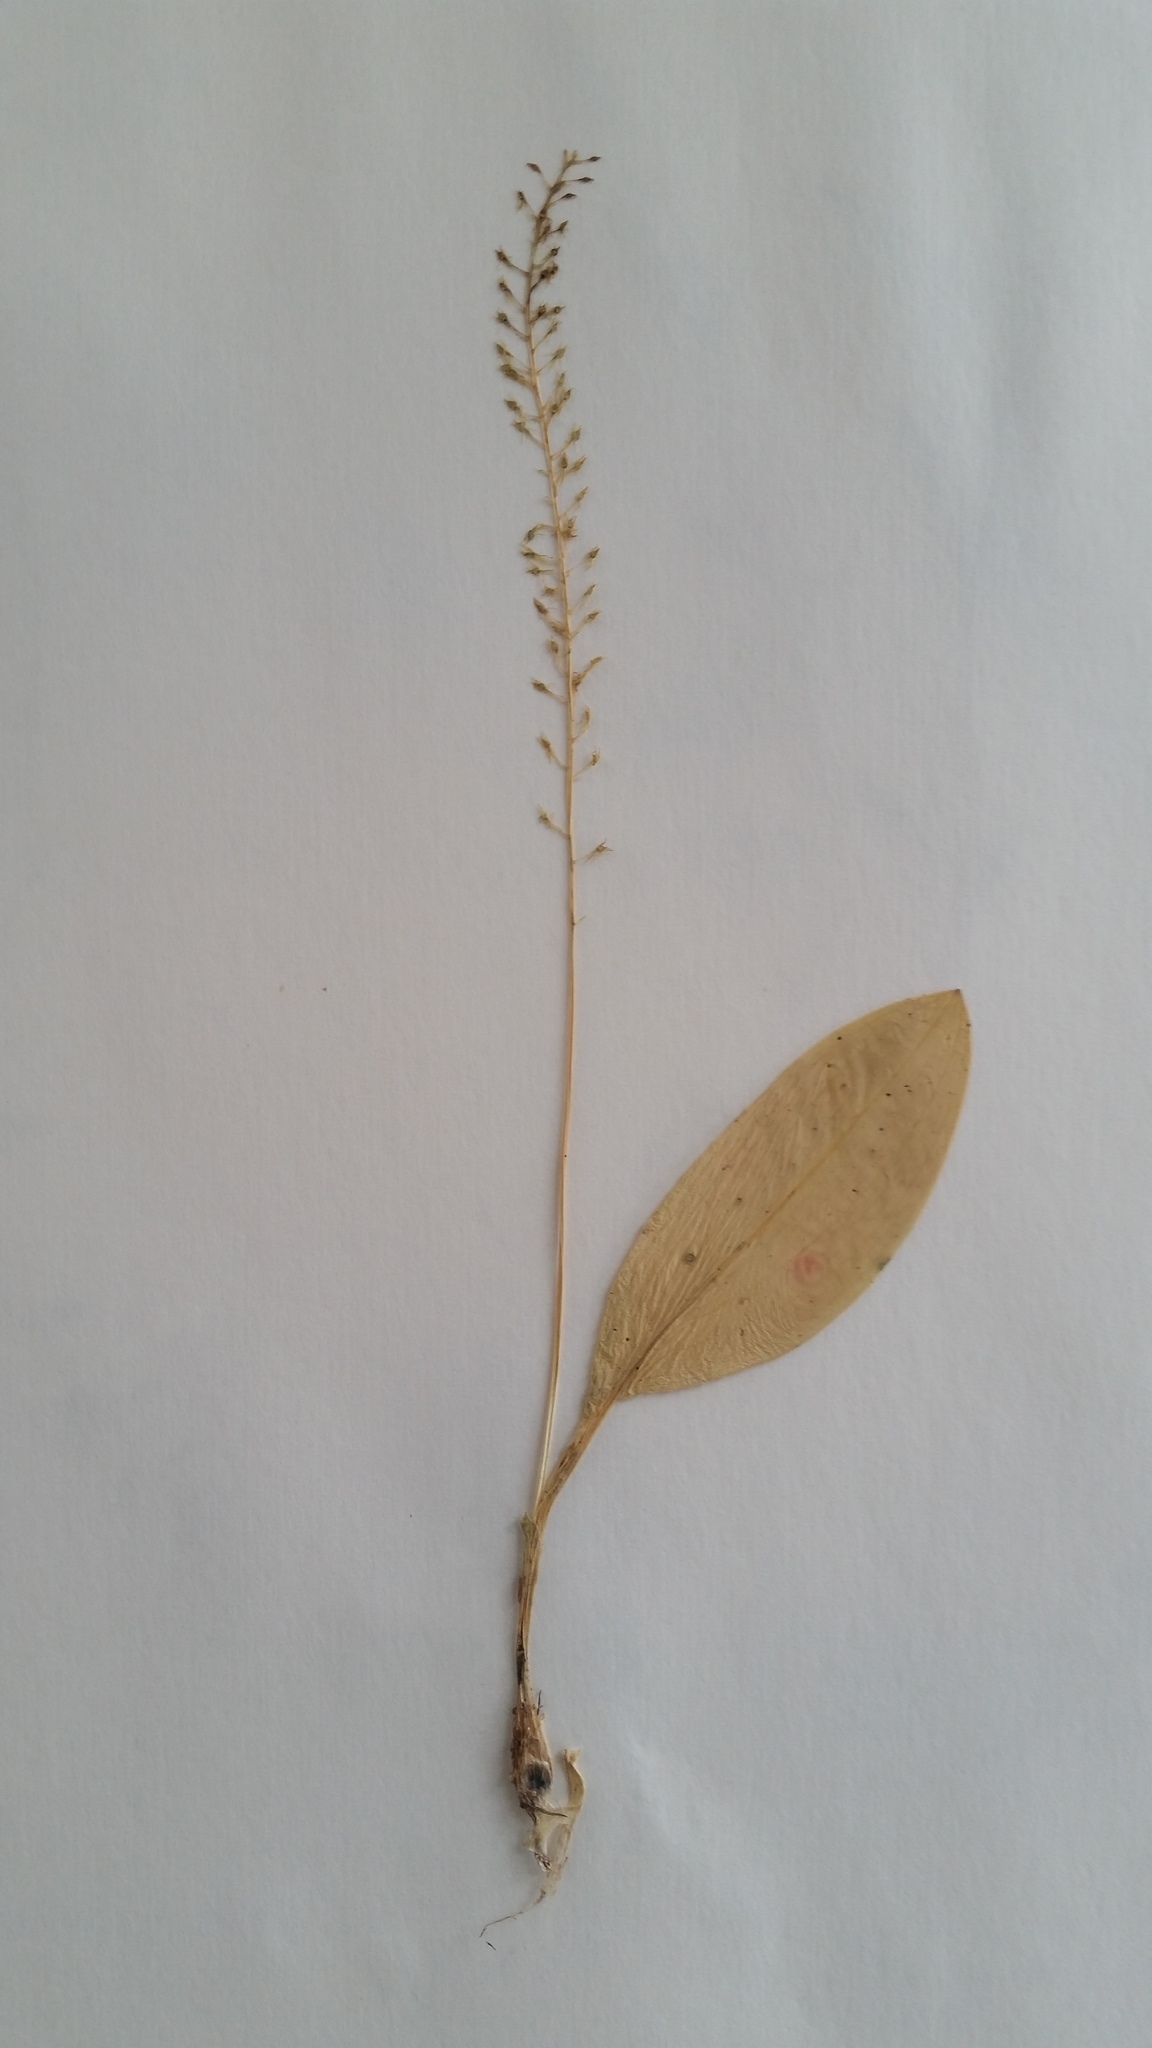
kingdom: Plantae
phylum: Tracheophyta
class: Liliopsida
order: Asparagales
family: Orchidaceae
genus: Malaxis
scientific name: Malaxis monophyllos
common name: White adder's-mouth
